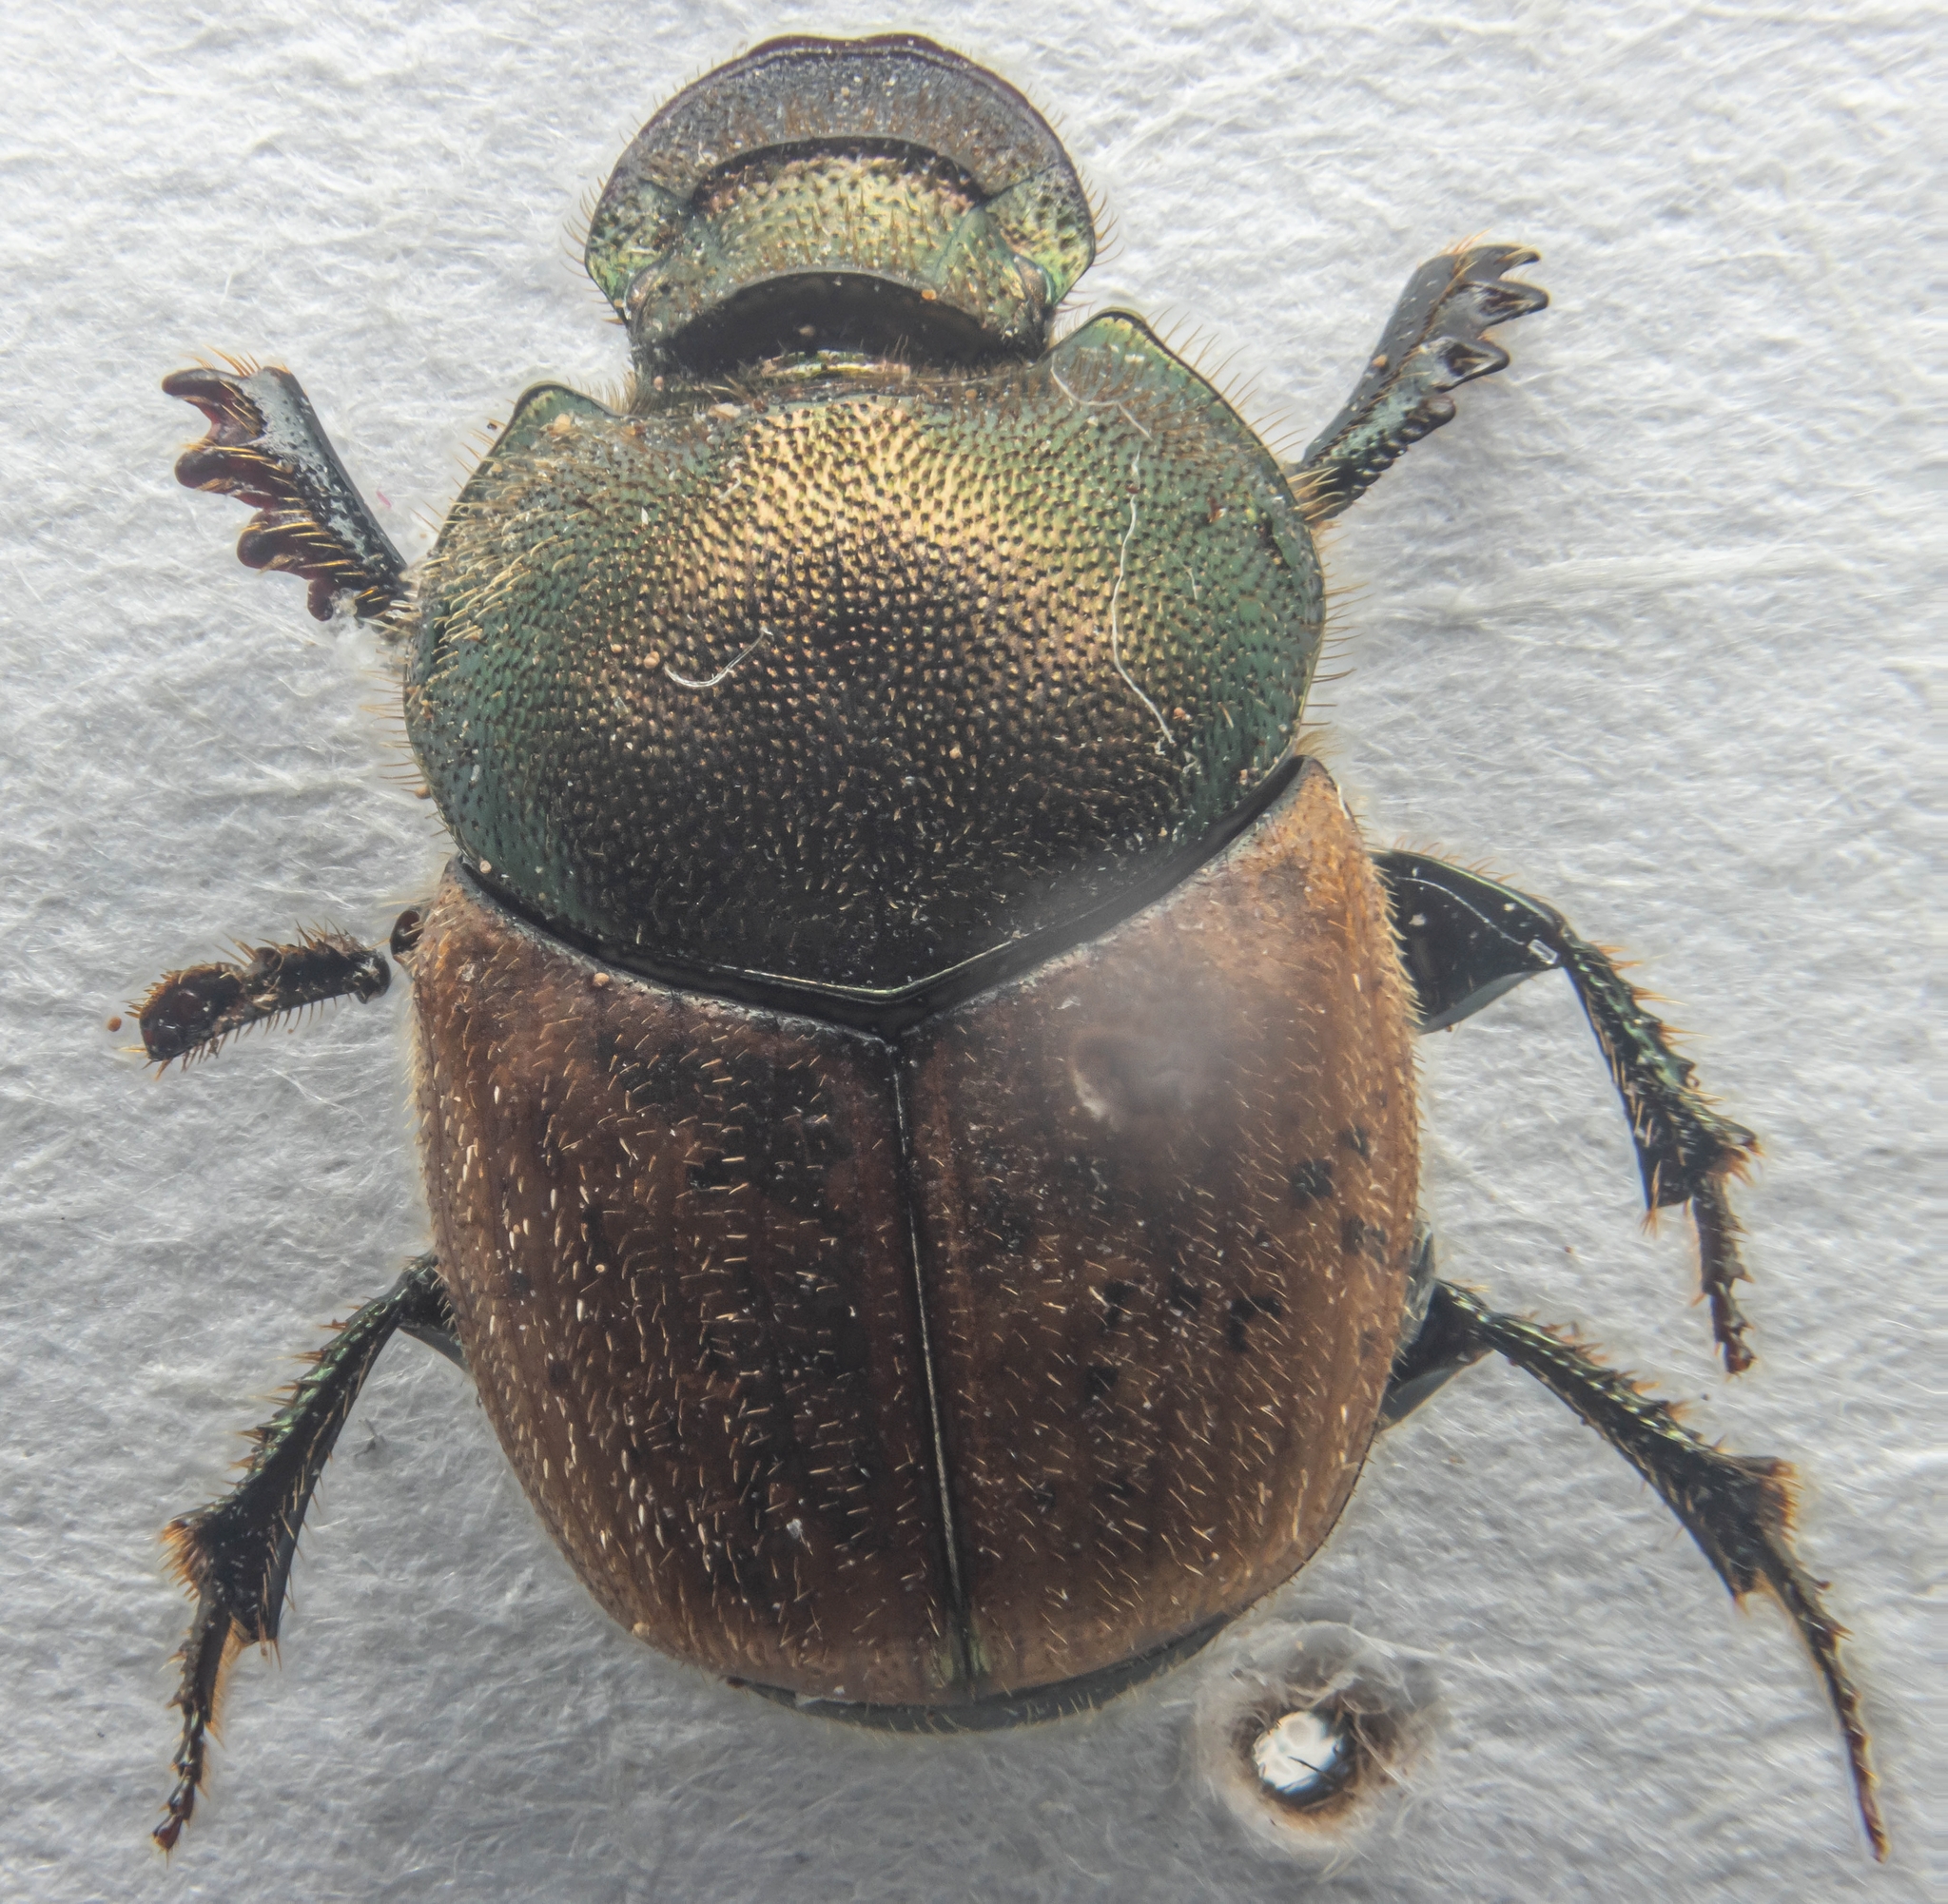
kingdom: Animalia
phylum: Arthropoda
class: Insecta
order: Coleoptera
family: Scarabaeidae
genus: Onthophagus
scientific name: Onthophagus coenobita
